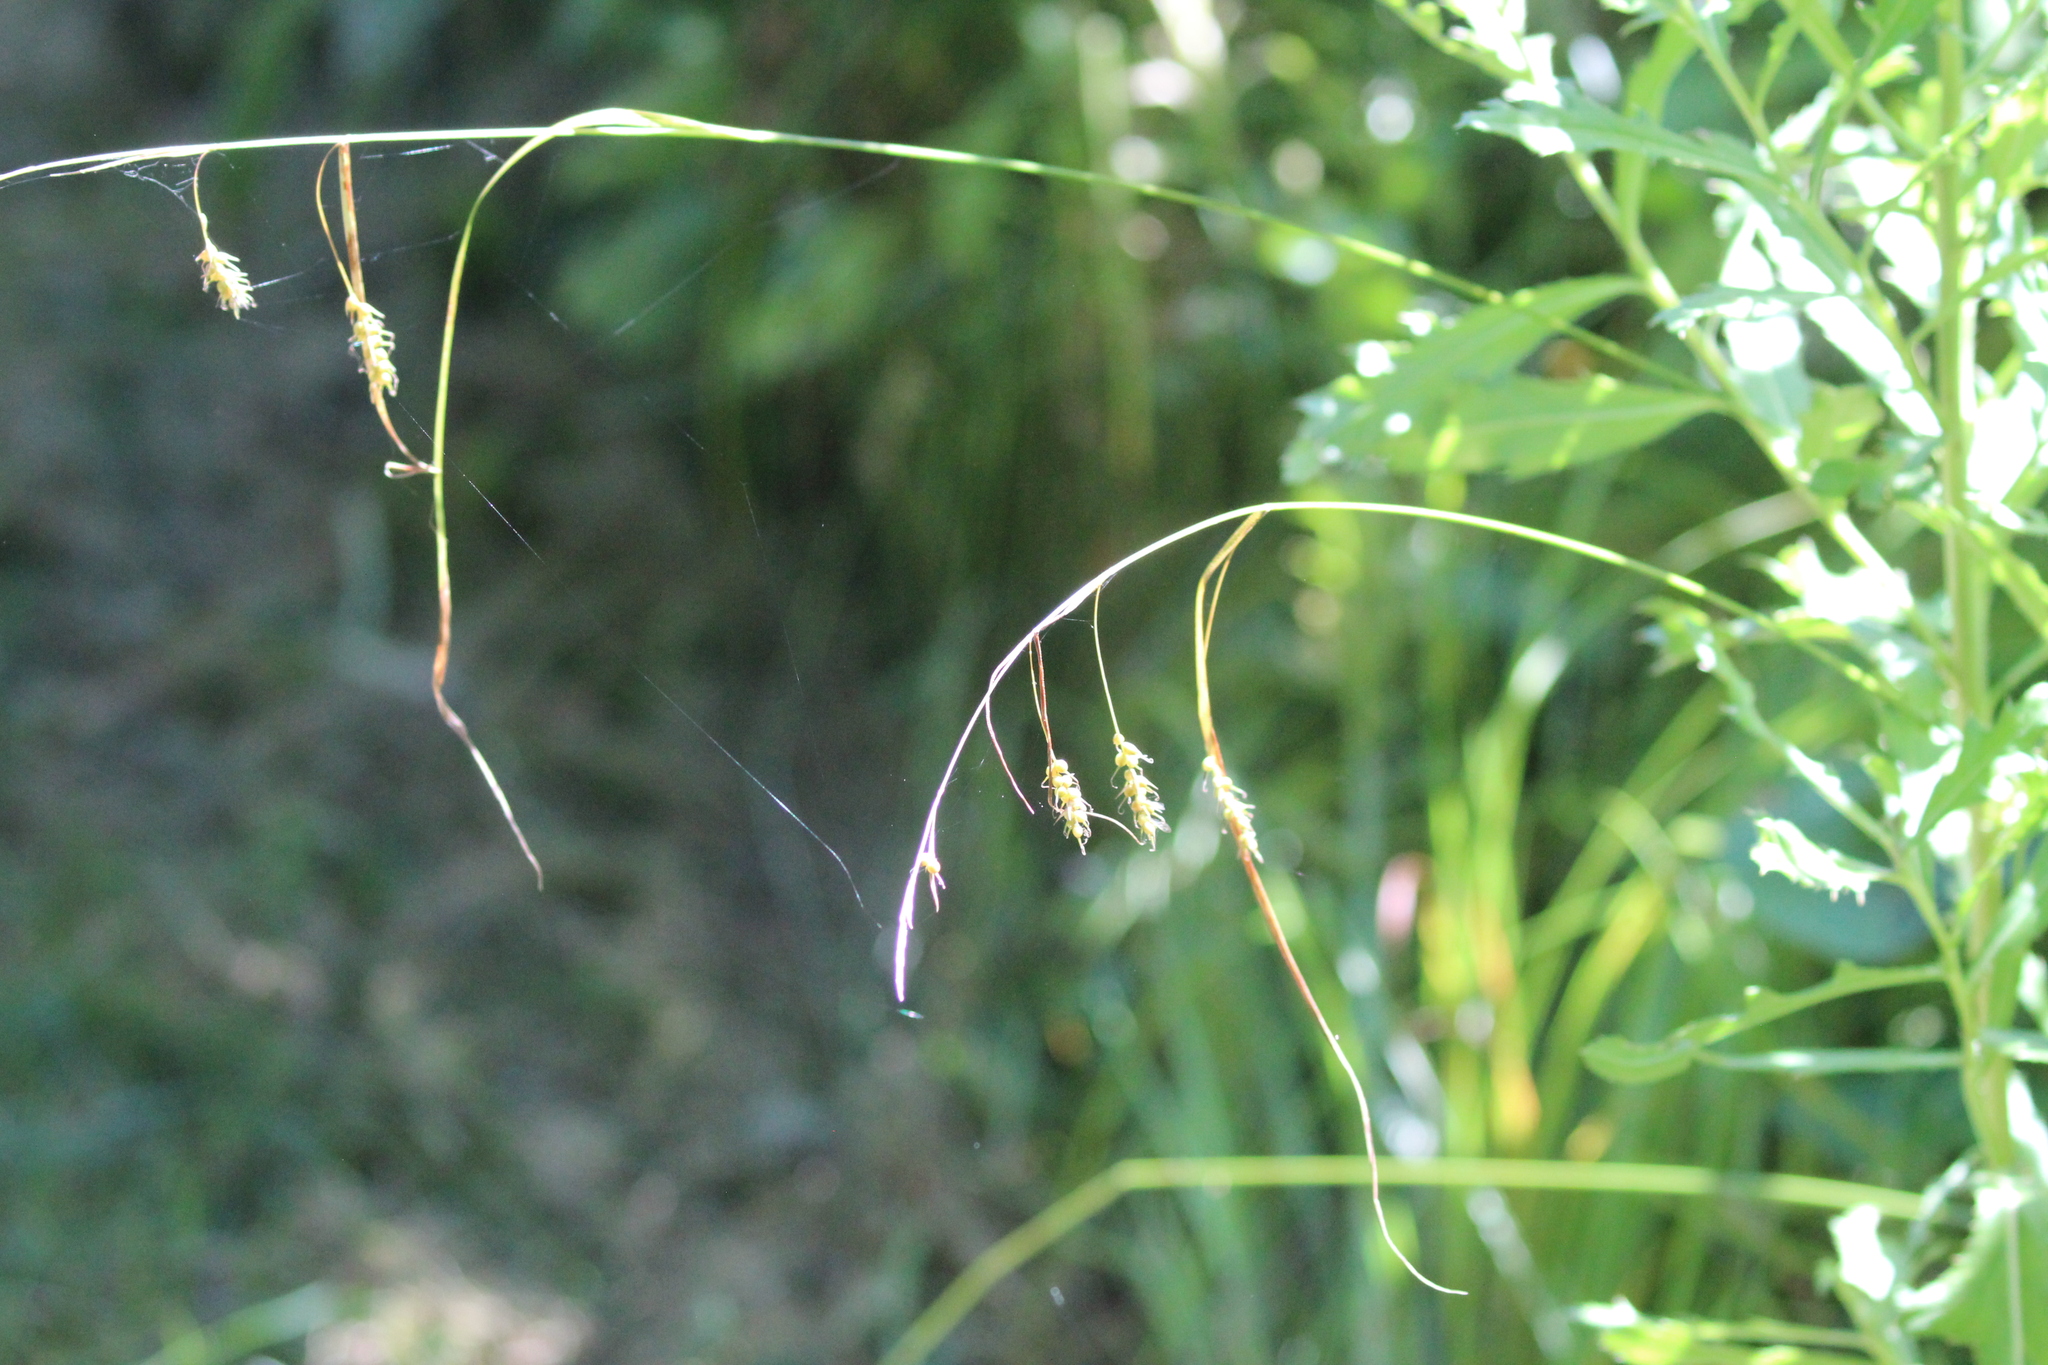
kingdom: Plantae
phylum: Tracheophyta
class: Liliopsida
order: Poales
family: Cyperaceae
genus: Carex
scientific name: Carex sprengelii
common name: Long-beaked sedge
